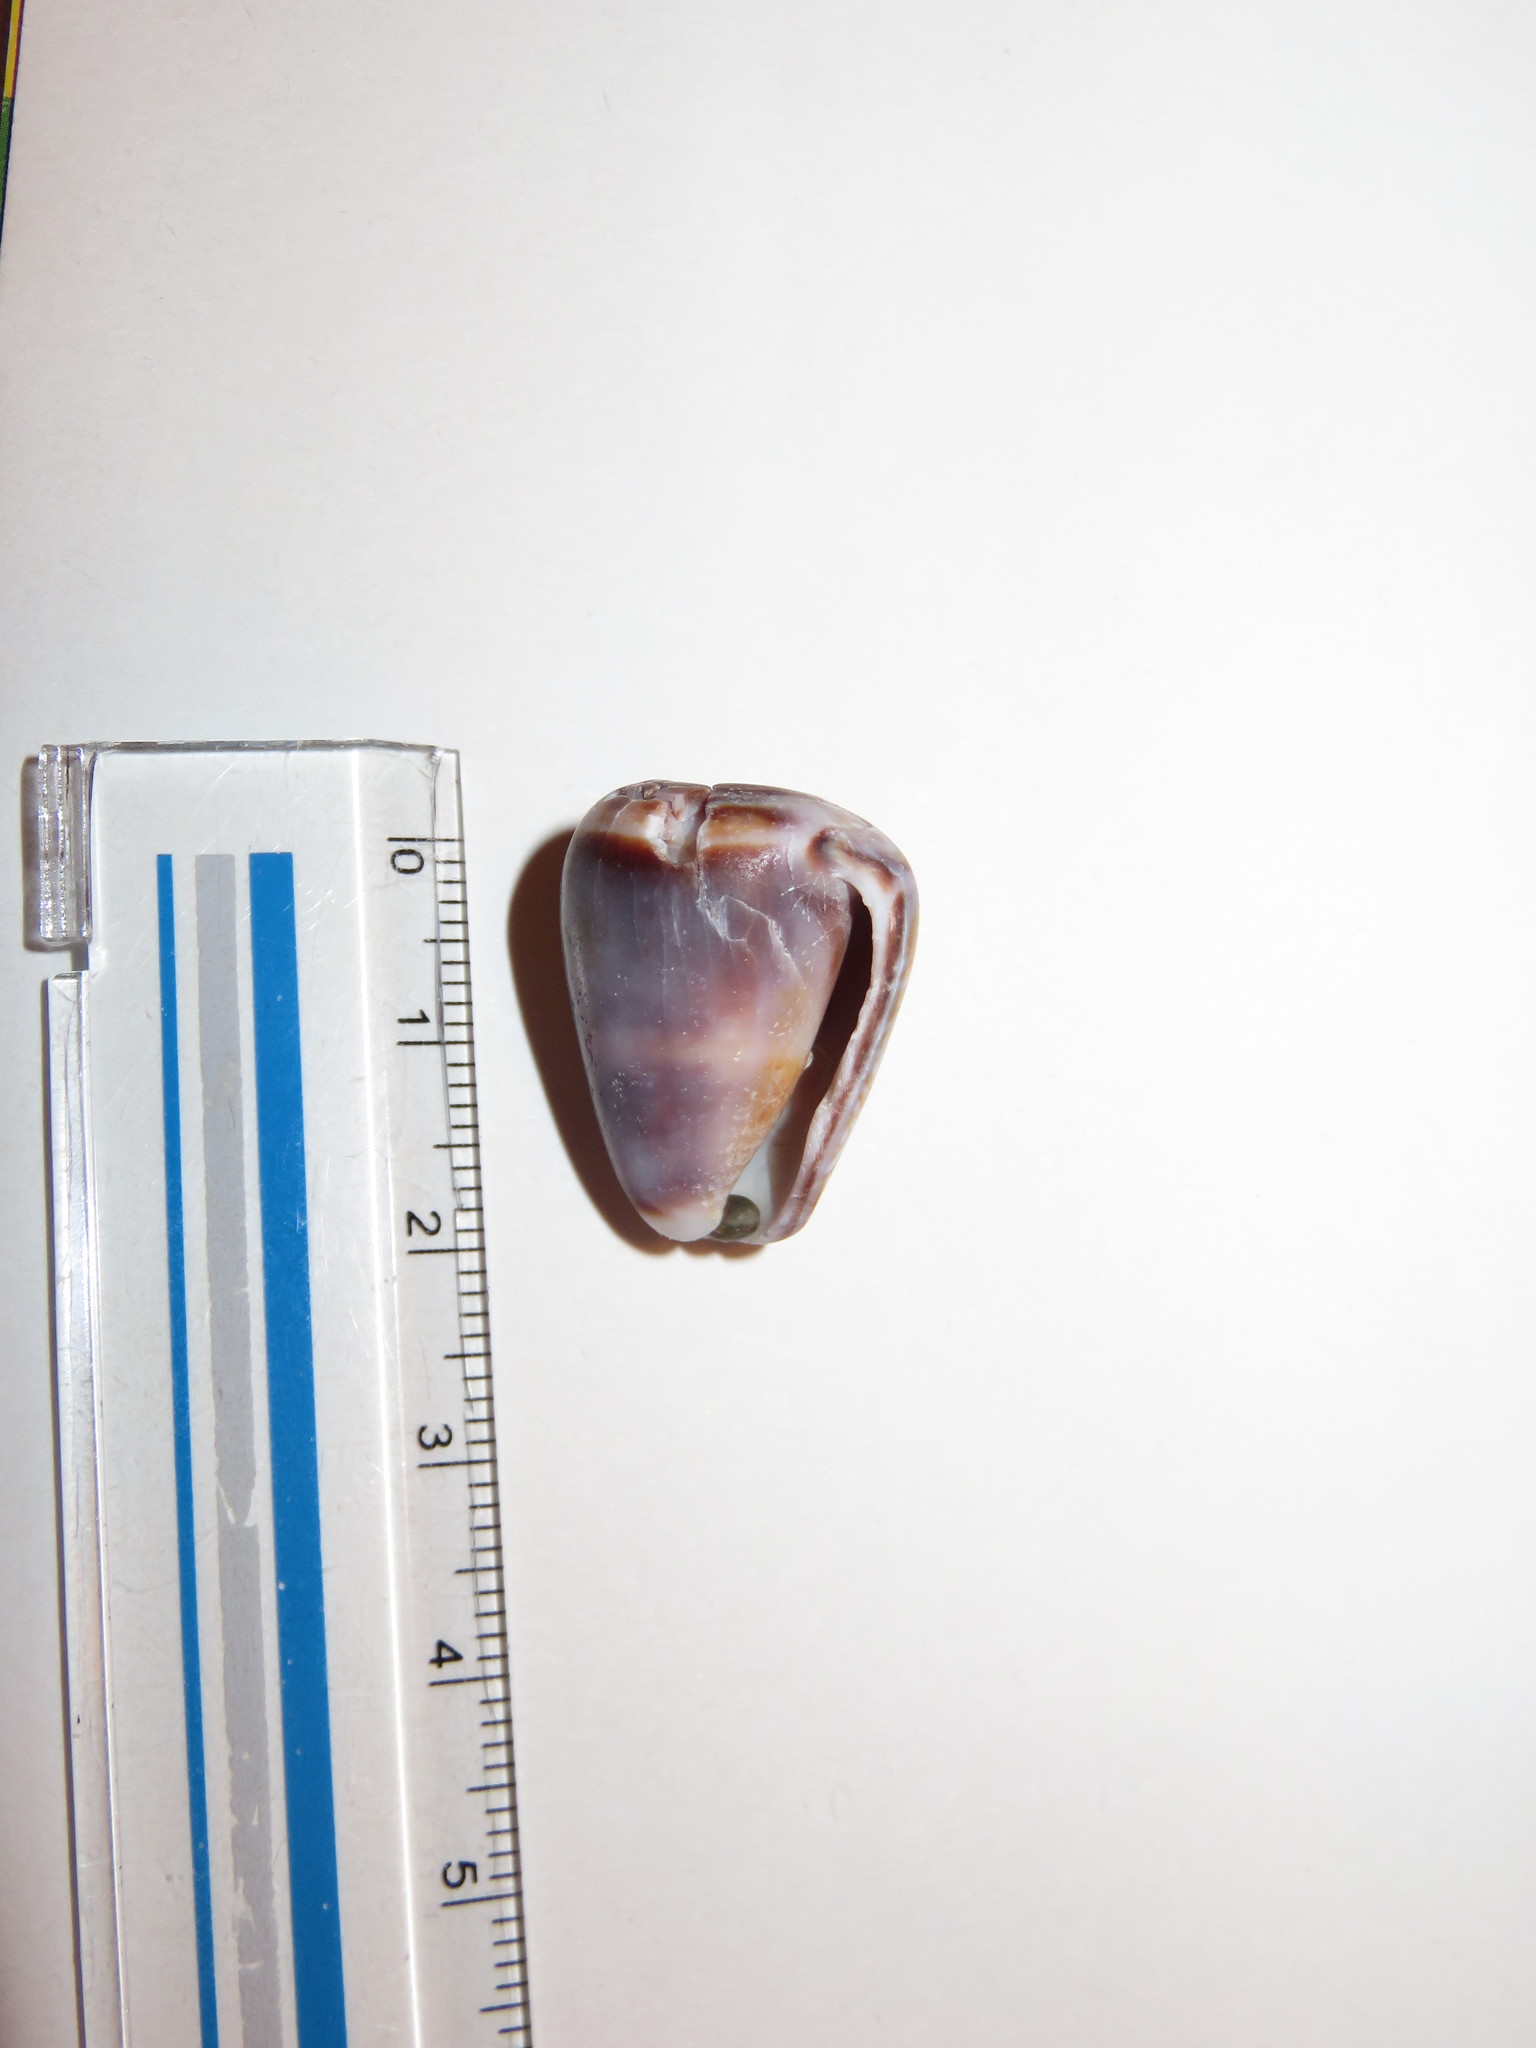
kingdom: Animalia
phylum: Mollusca
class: Gastropoda
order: Neogastropoda
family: Conidae
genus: Conus
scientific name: Conus miliaris
